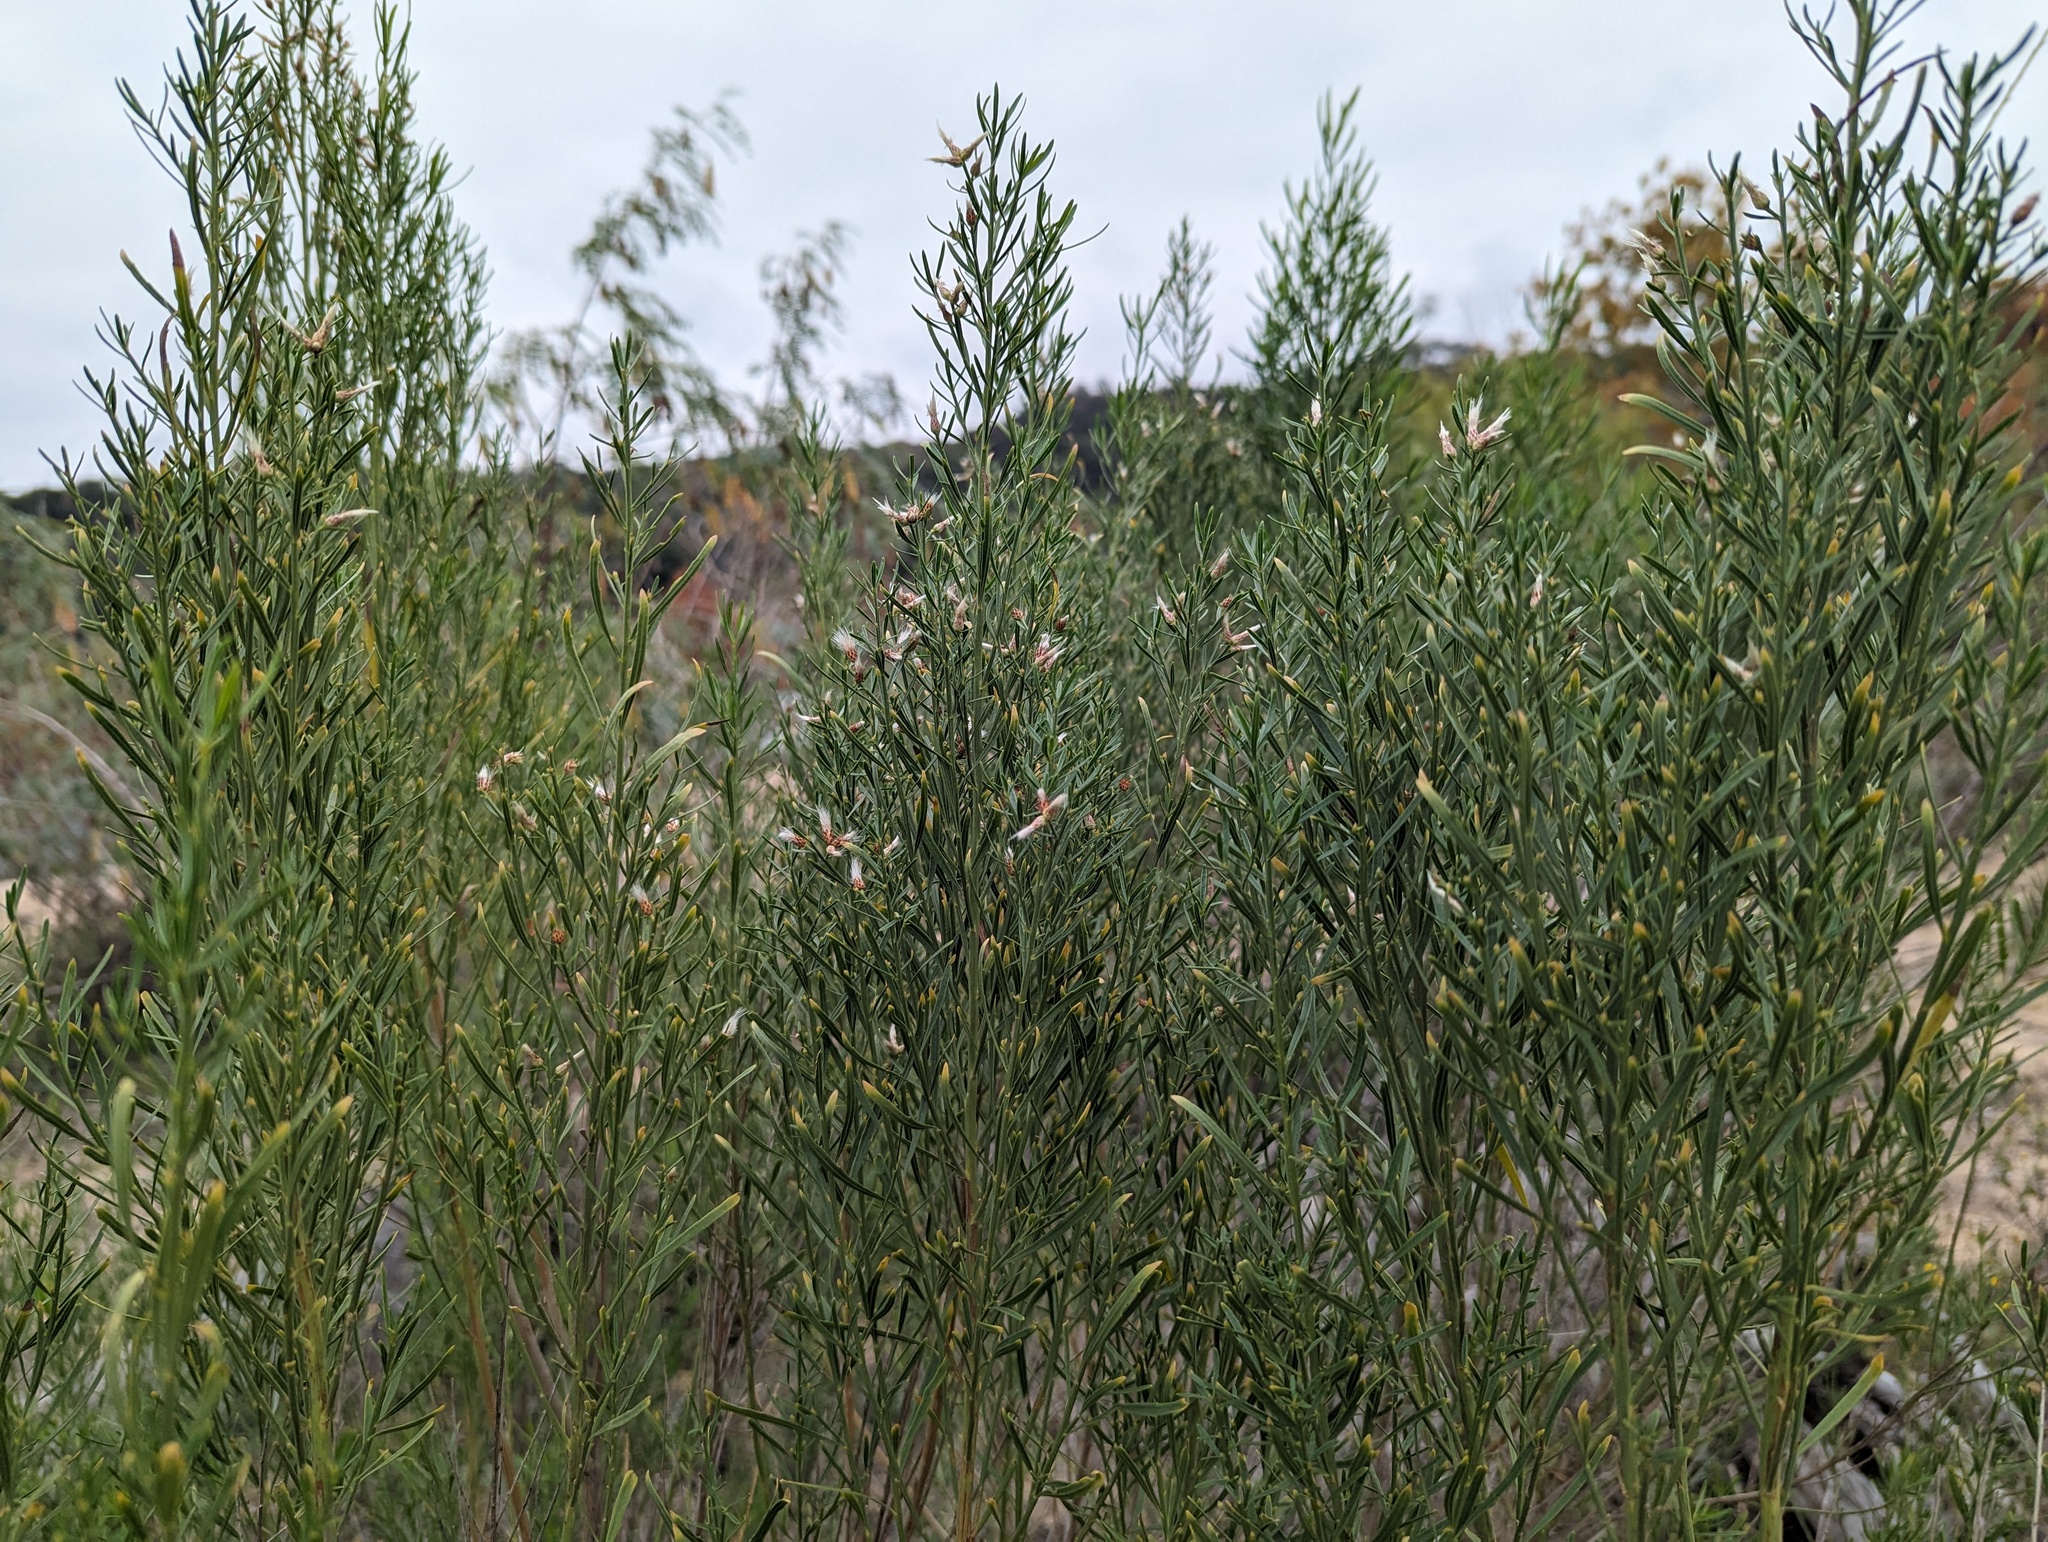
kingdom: Plantae
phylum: Tracheophyta
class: Magnoliopsida
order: Asterales
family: Asteraceae
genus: Baccharis
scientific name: Baccharis neglecta
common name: Roosevelt-weed
